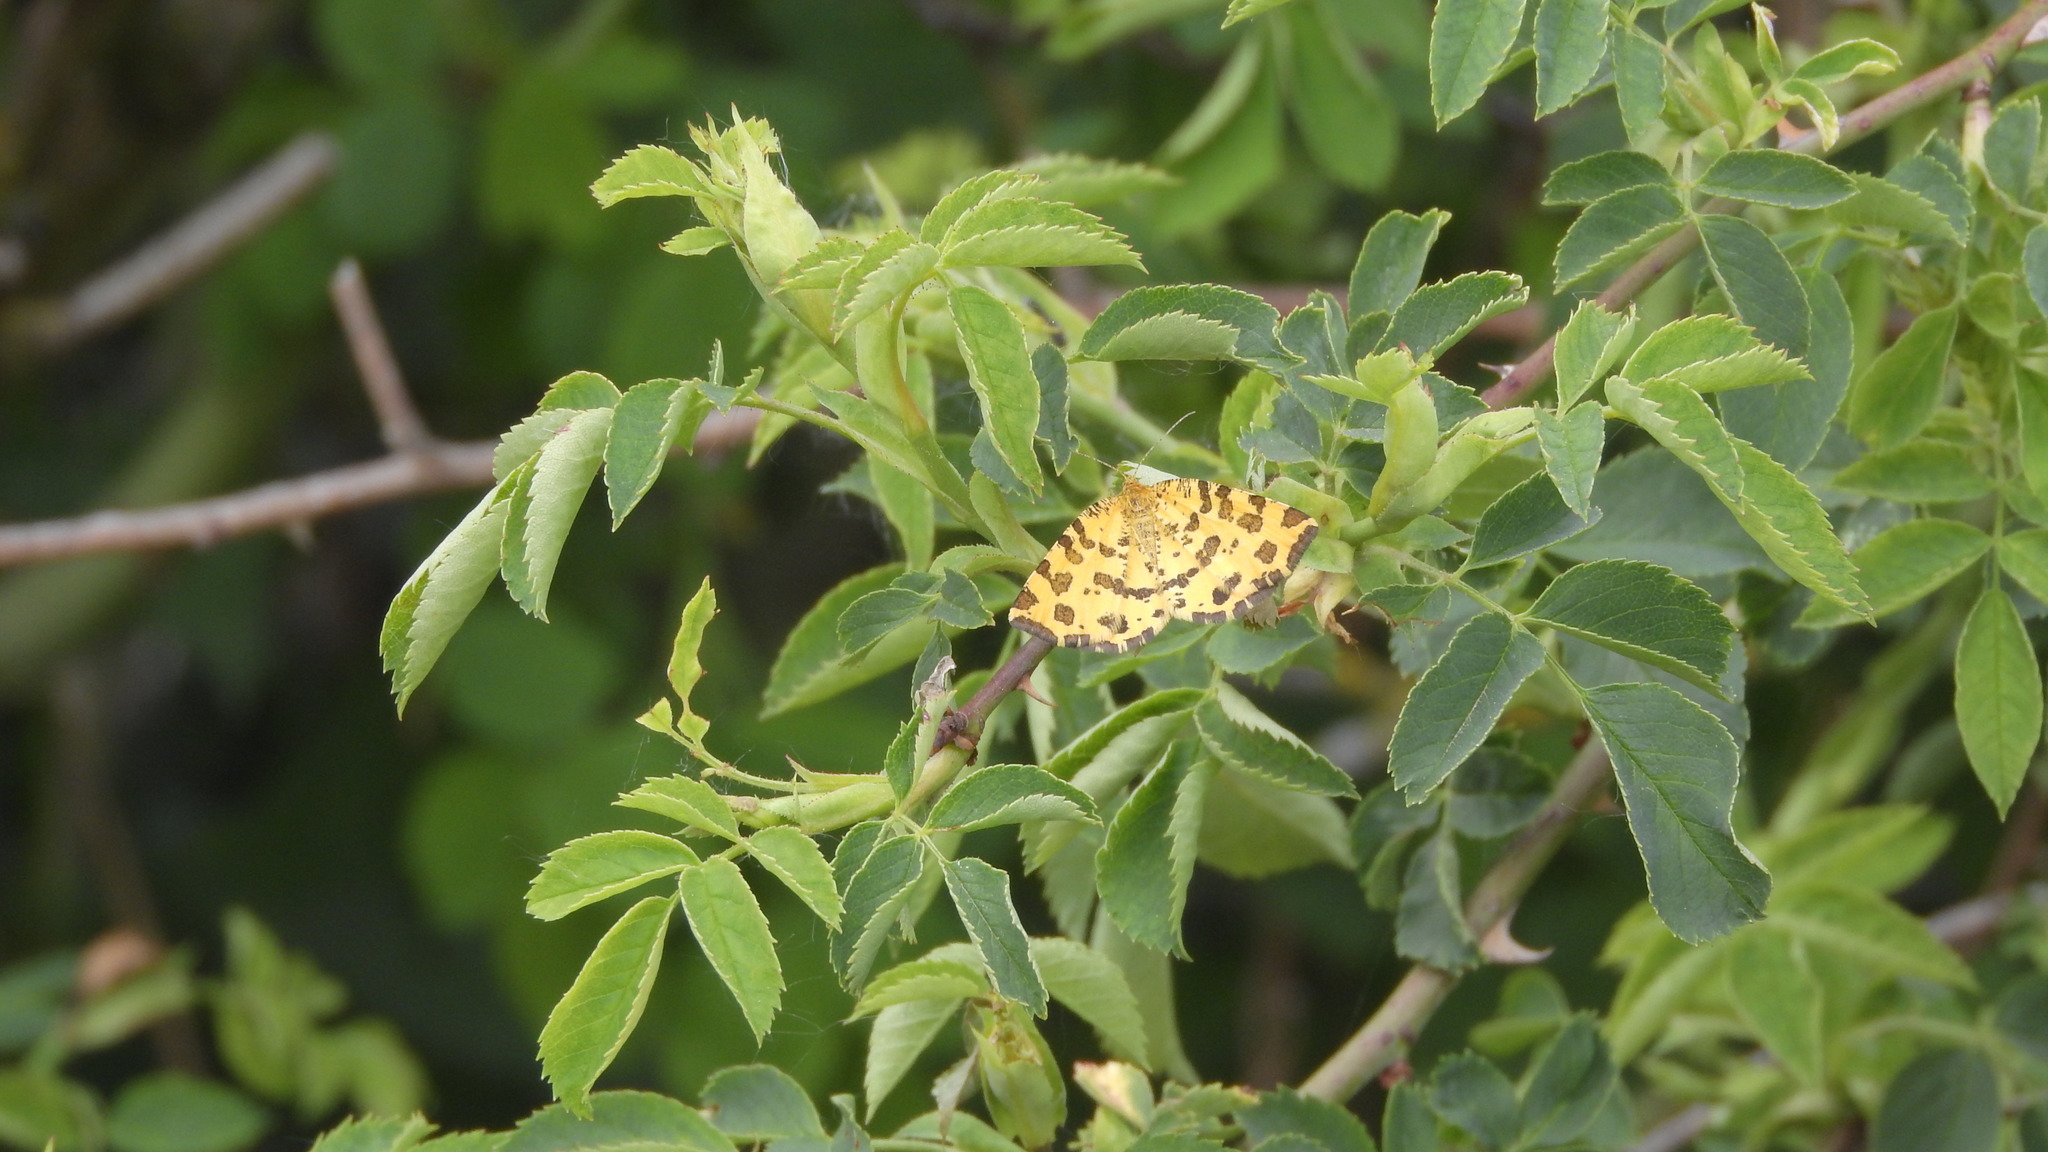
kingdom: Animalia
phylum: Arthropoda
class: Insecta
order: Lepidoptera
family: Geometridae
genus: Pseudopanthera
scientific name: Pseudopanthera macularia
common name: Speckled yellow
